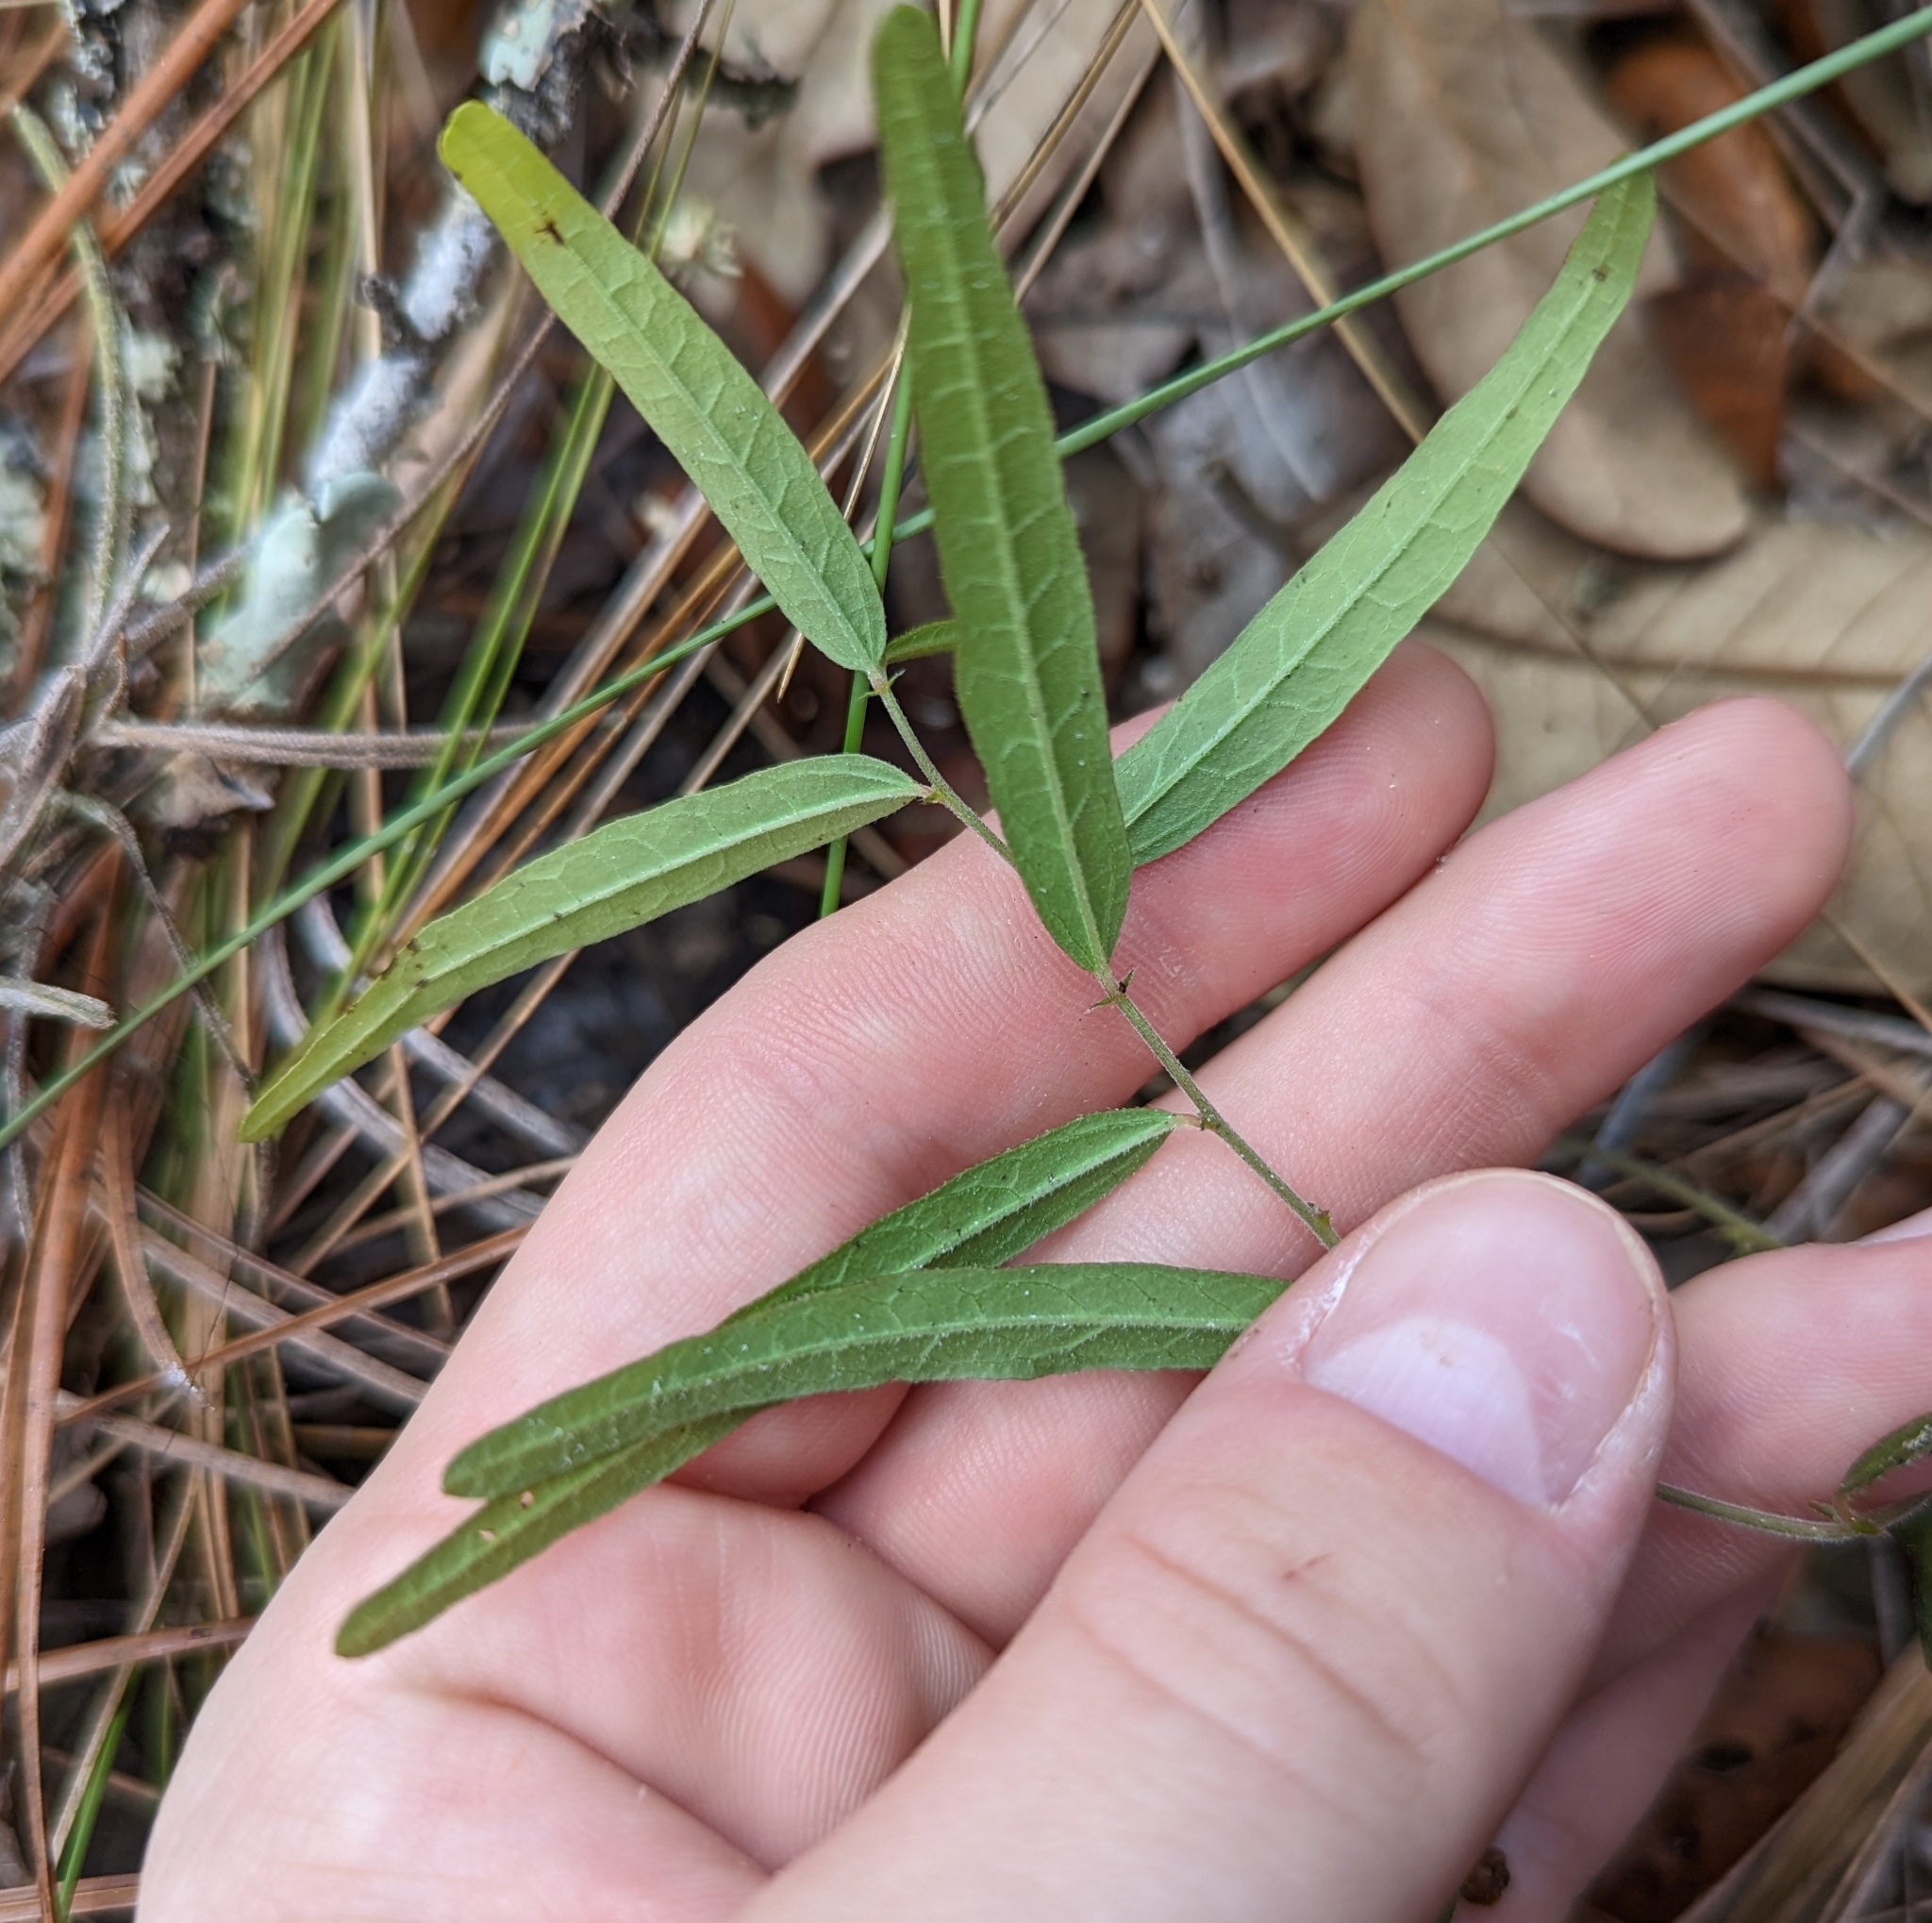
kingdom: Plantae
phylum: Tracheophyta
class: Magnoliopsida
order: Malpighiales
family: Euphorbiaceae
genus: Tragia
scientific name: Tragia urens
